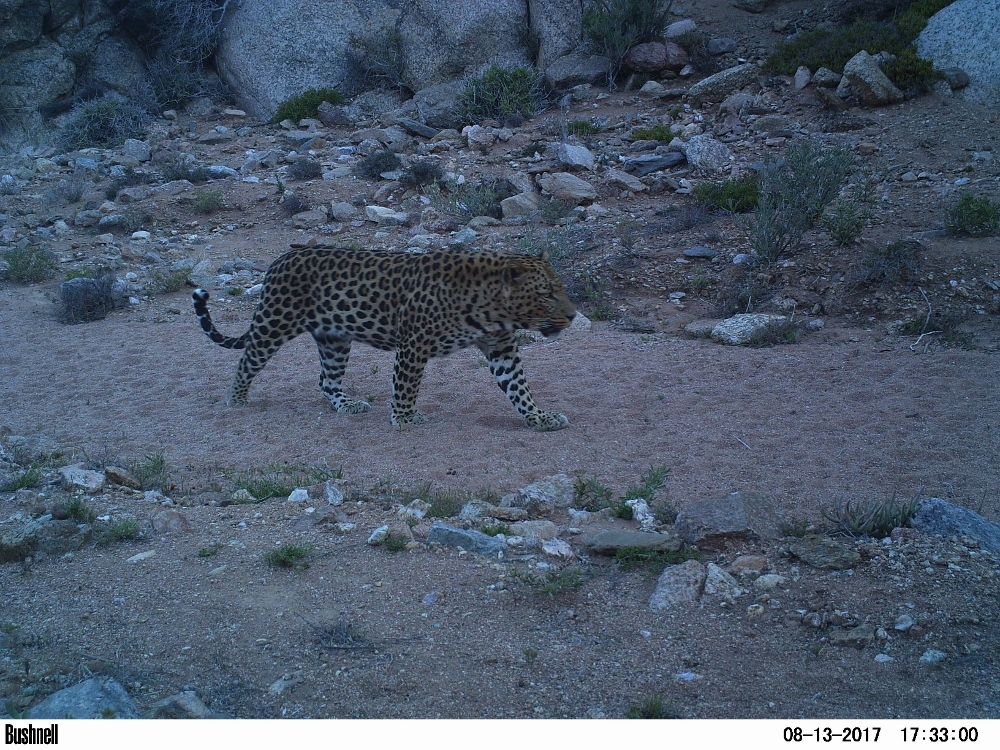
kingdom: Animalia
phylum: Chordata
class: Mammalia
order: Carnivora
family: Felidae
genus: Panthera
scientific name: Panthera pardus
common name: Leopard
